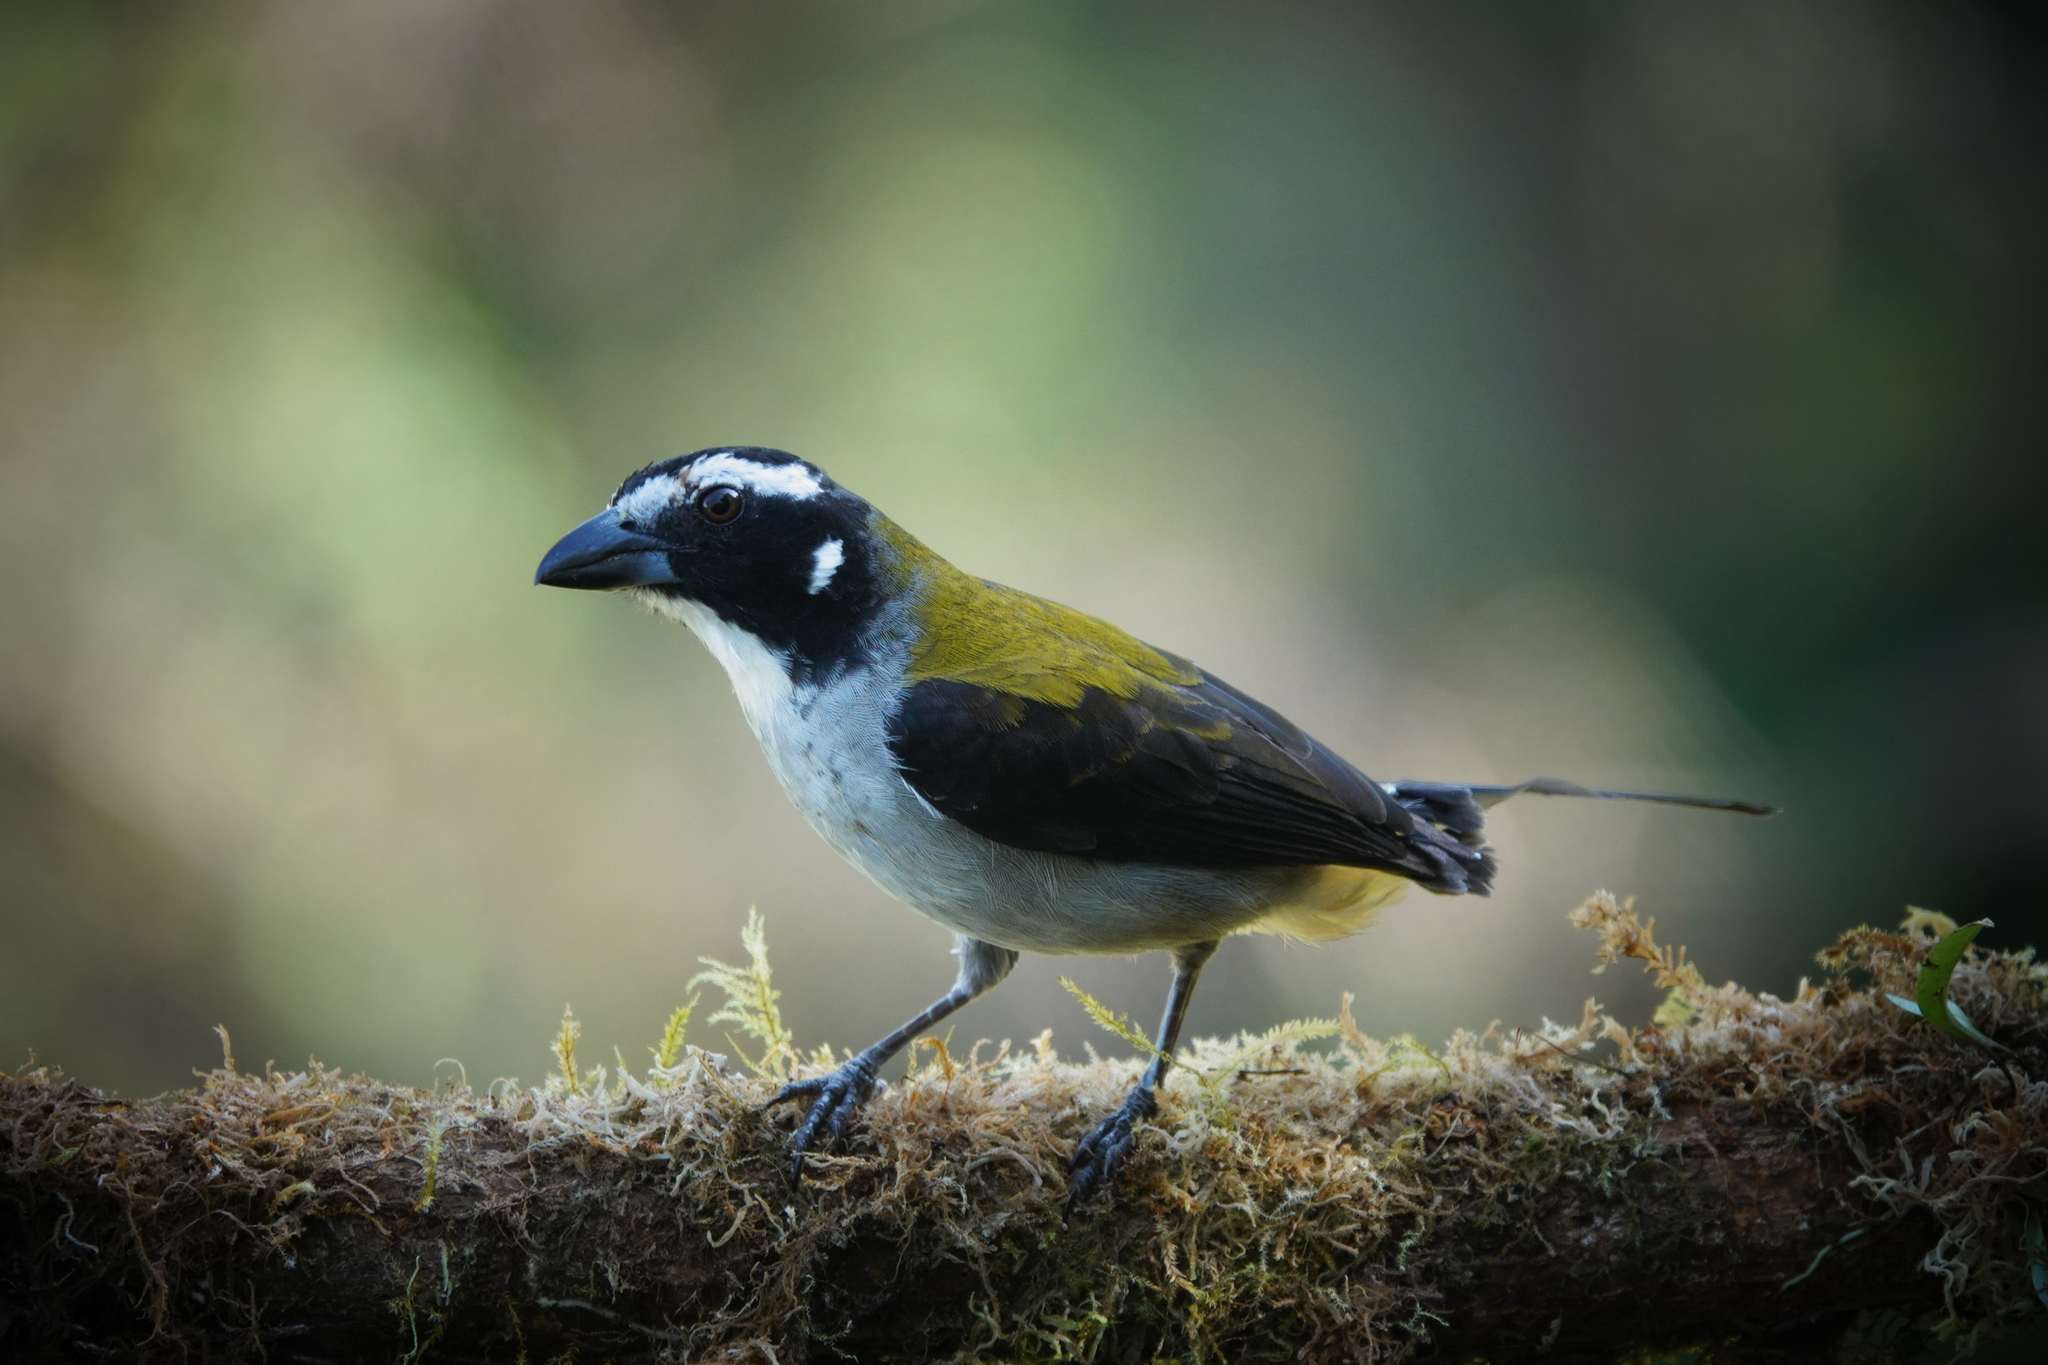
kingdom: Animalia
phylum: Chordata
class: Aves
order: Passeriformes
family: Thraupidae
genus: Saltator
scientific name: Saltator atripennis
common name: Black-winged saltator
